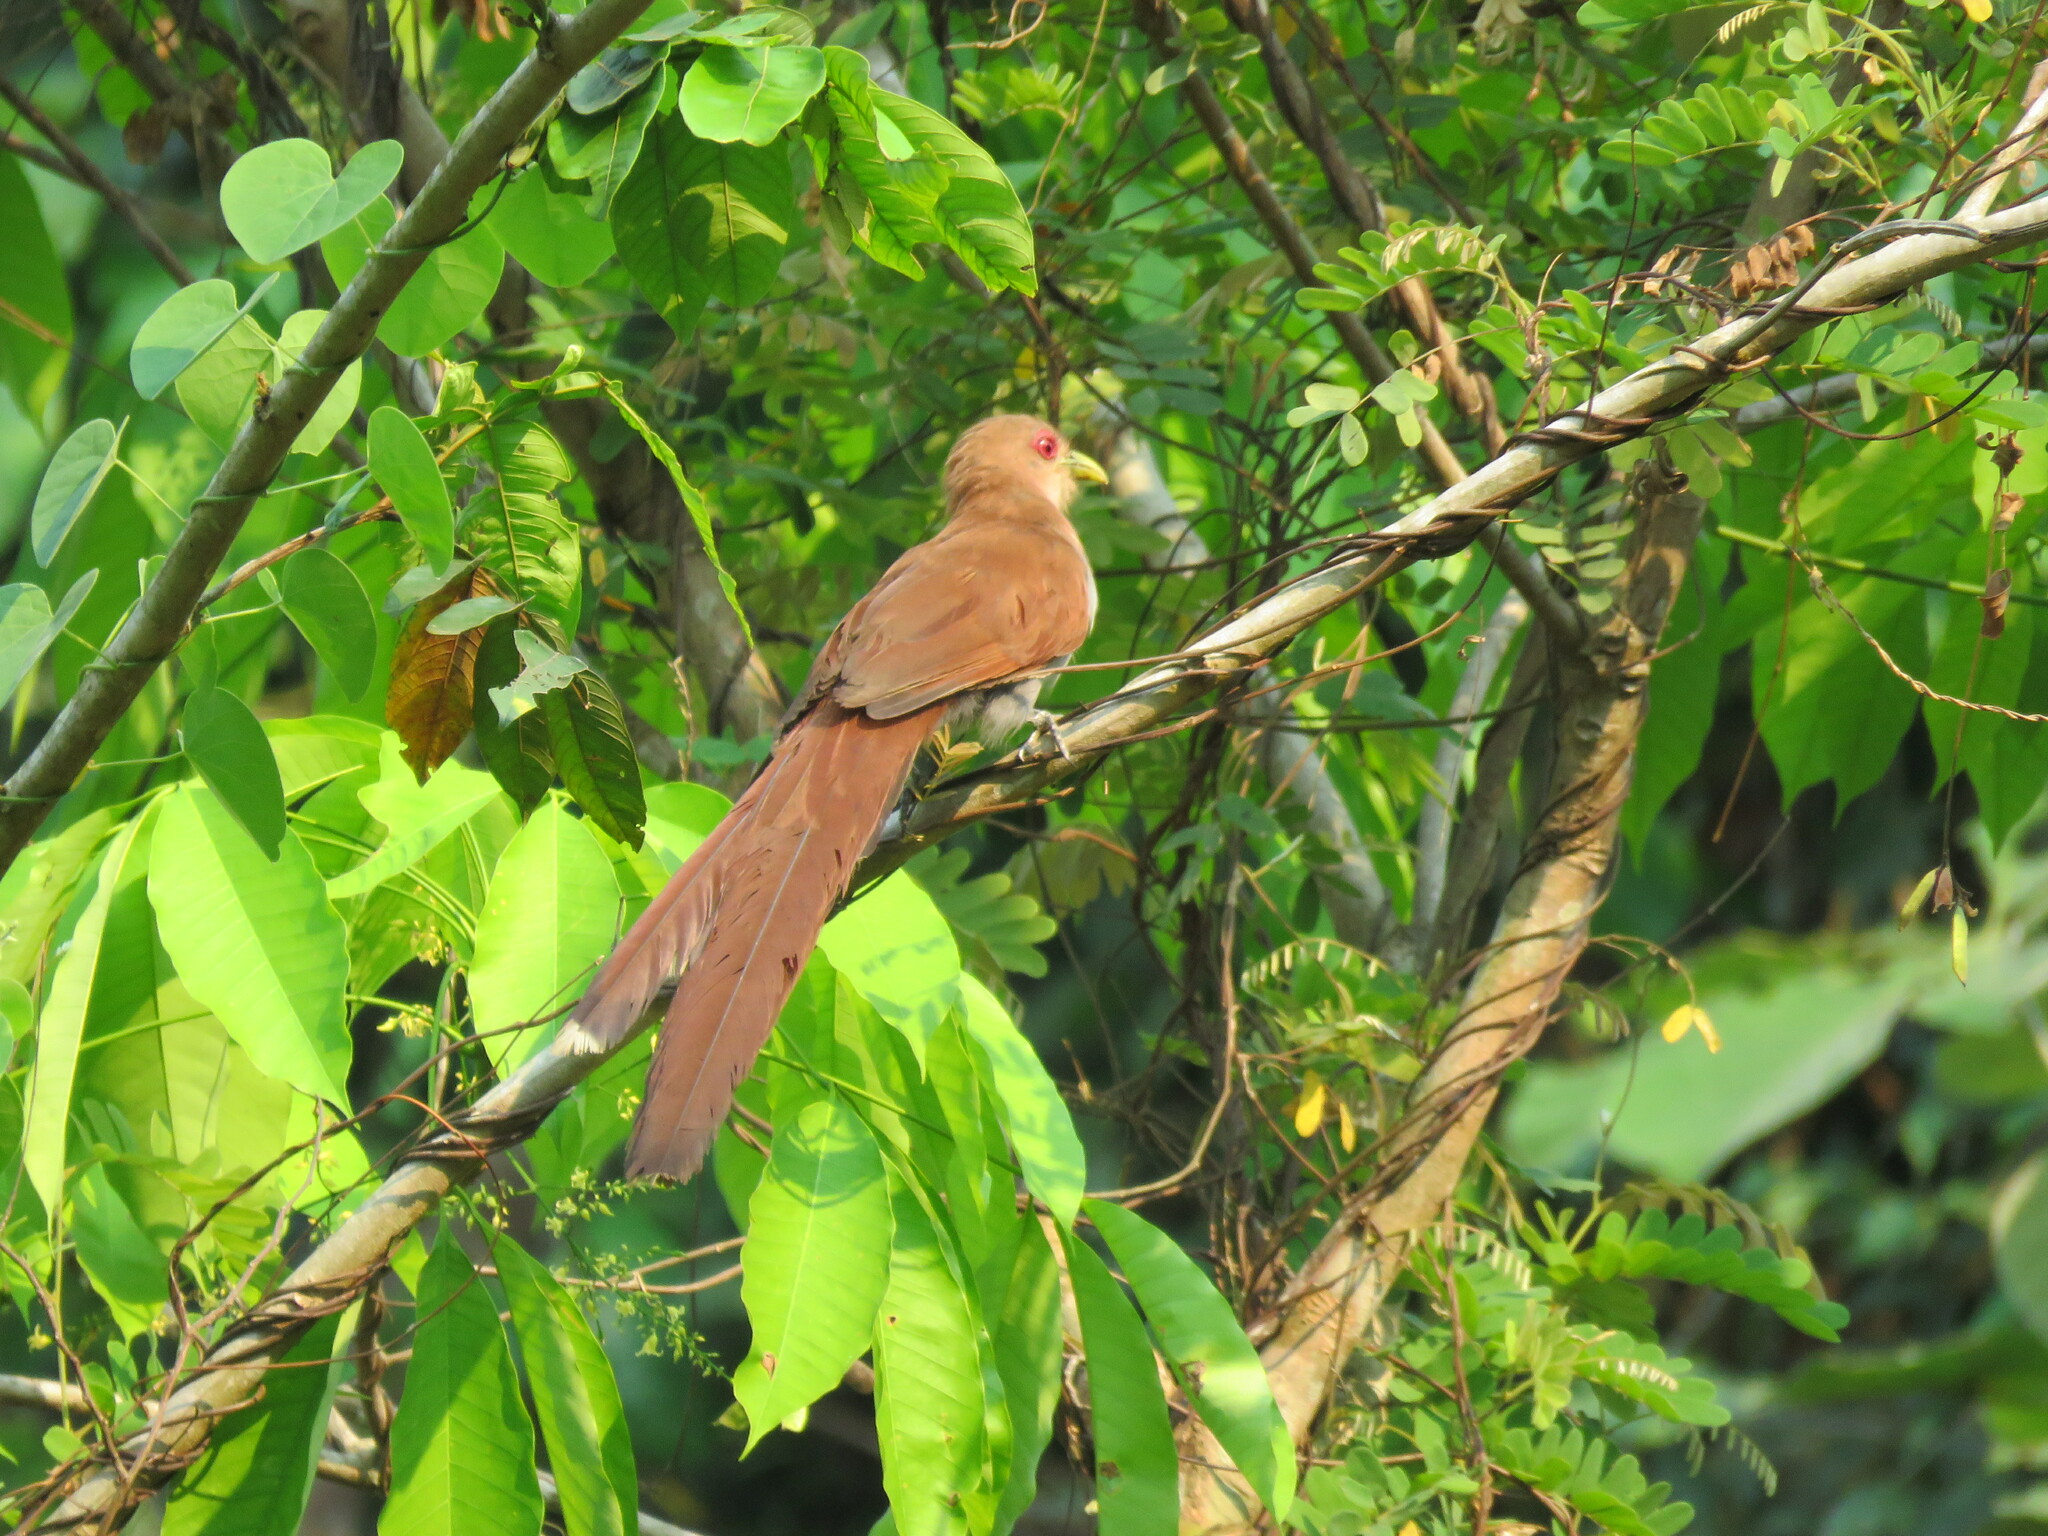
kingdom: Animalia
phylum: Chordata
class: Aves
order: Cuculiformes
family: Cuculidae
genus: Piaya
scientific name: Piaya cayana
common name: Squirrel cuckoo
